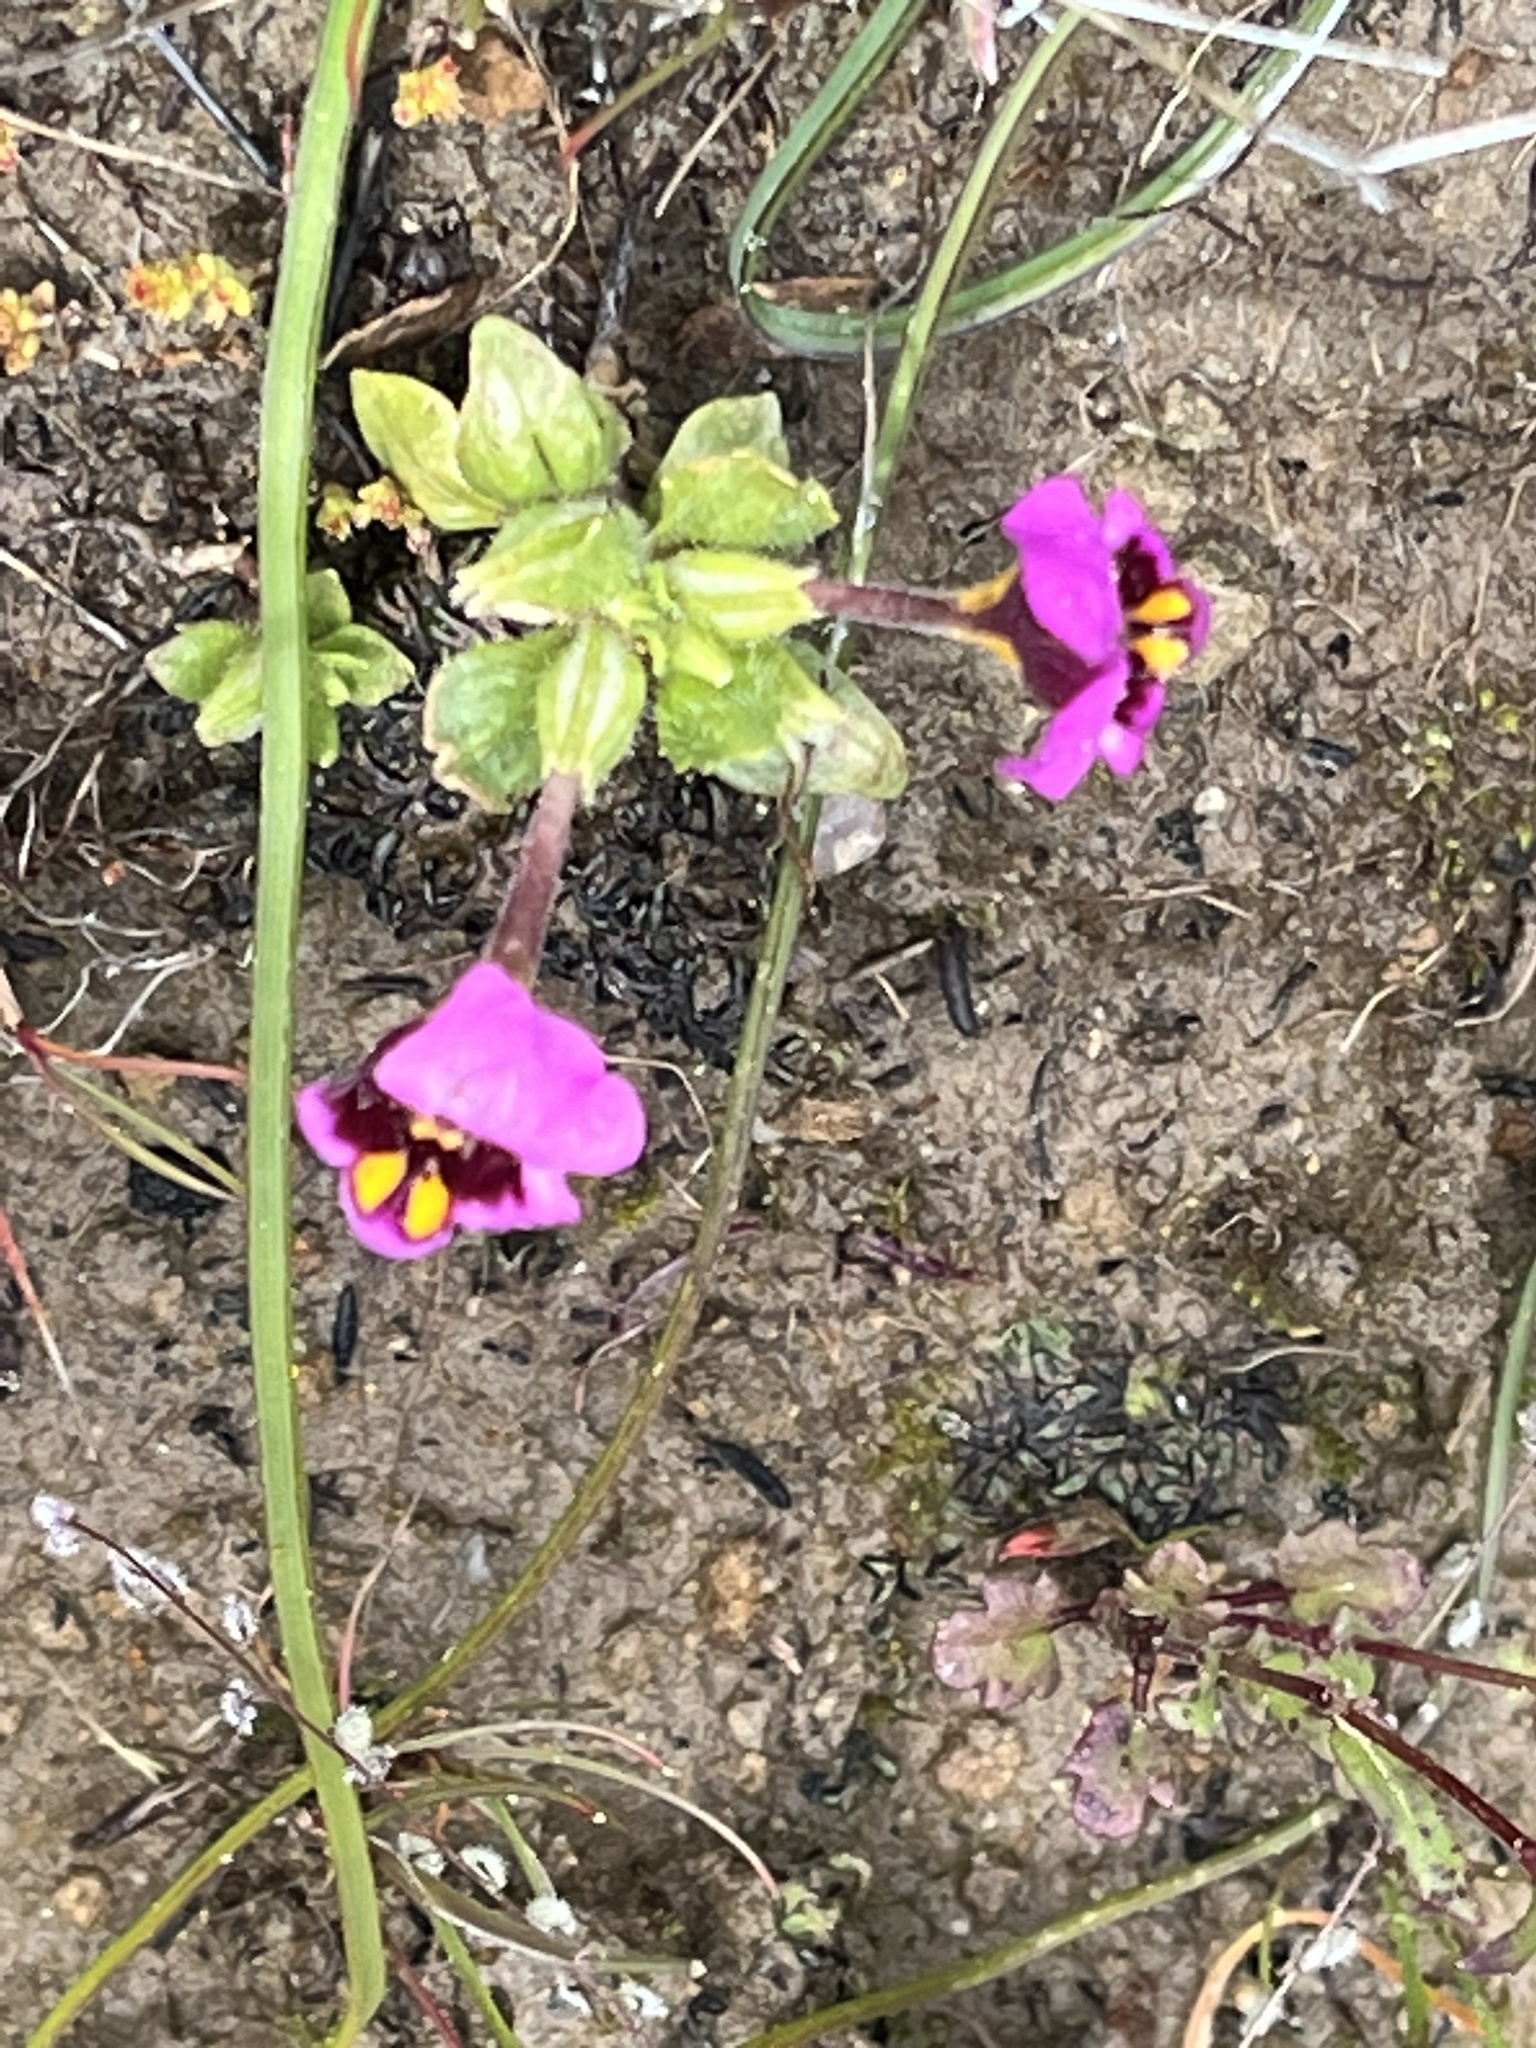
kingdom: Plantae
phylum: Tracheophyta
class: Magnoliopsida
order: Lamiales
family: Phrymaceae
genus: Diplacus
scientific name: Diplacus douglasii
